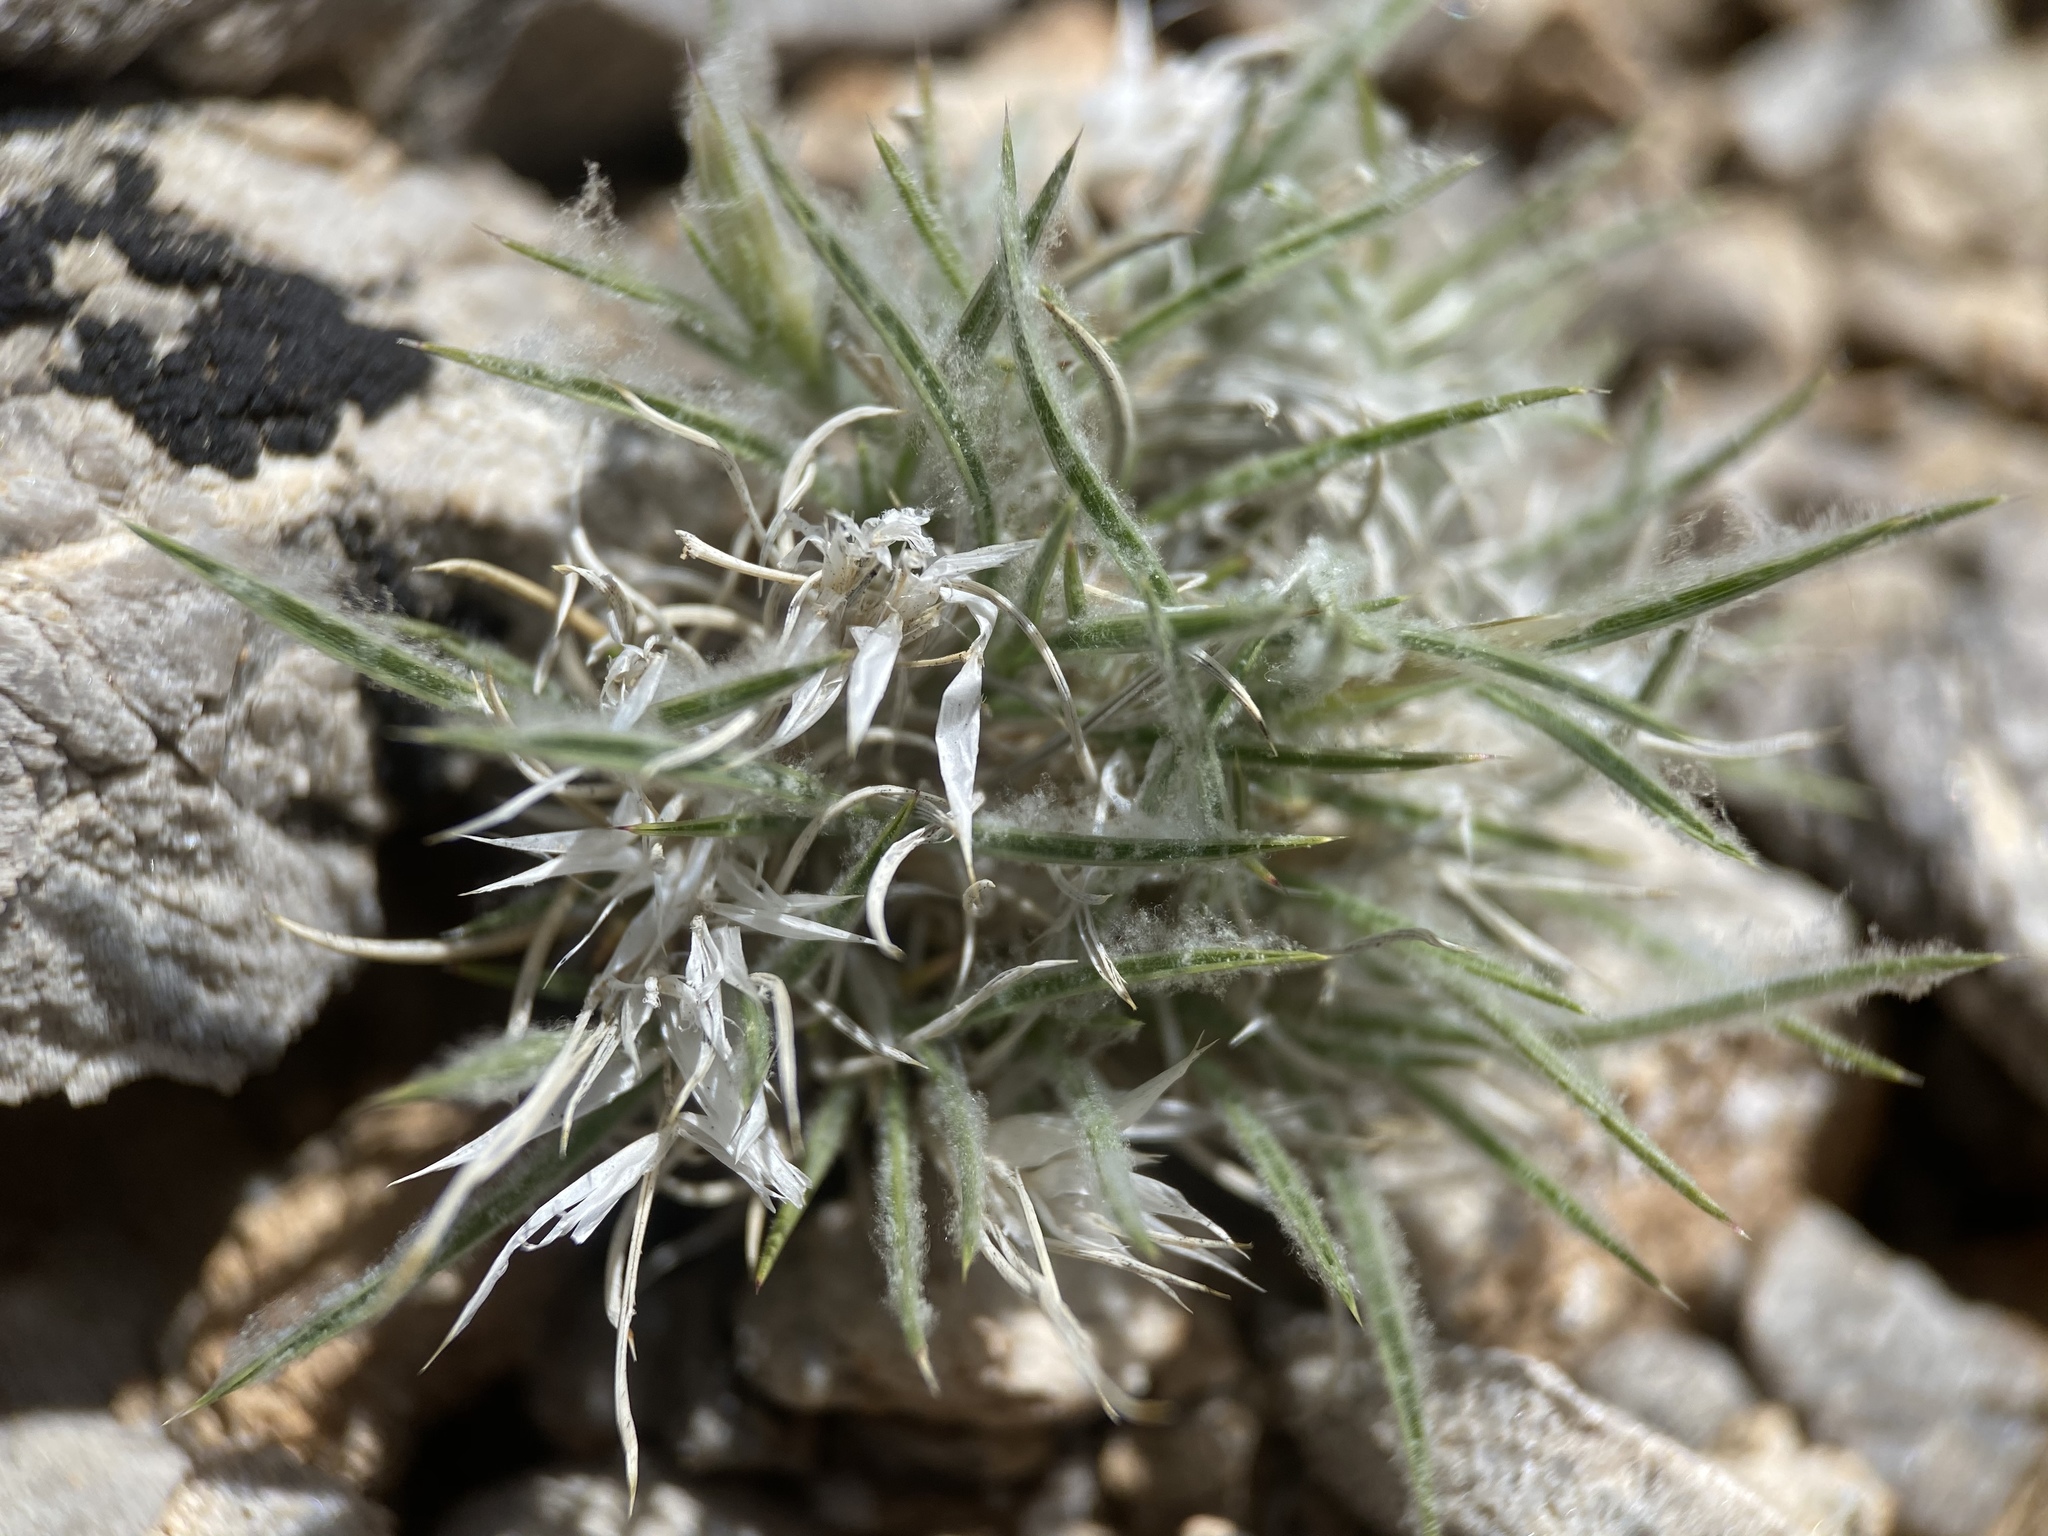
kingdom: Plantae
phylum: Tracheophyta
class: Liliopsida
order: Poales
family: Poaceae
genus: Dasyochloa
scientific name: Dasyochloa pulchella
